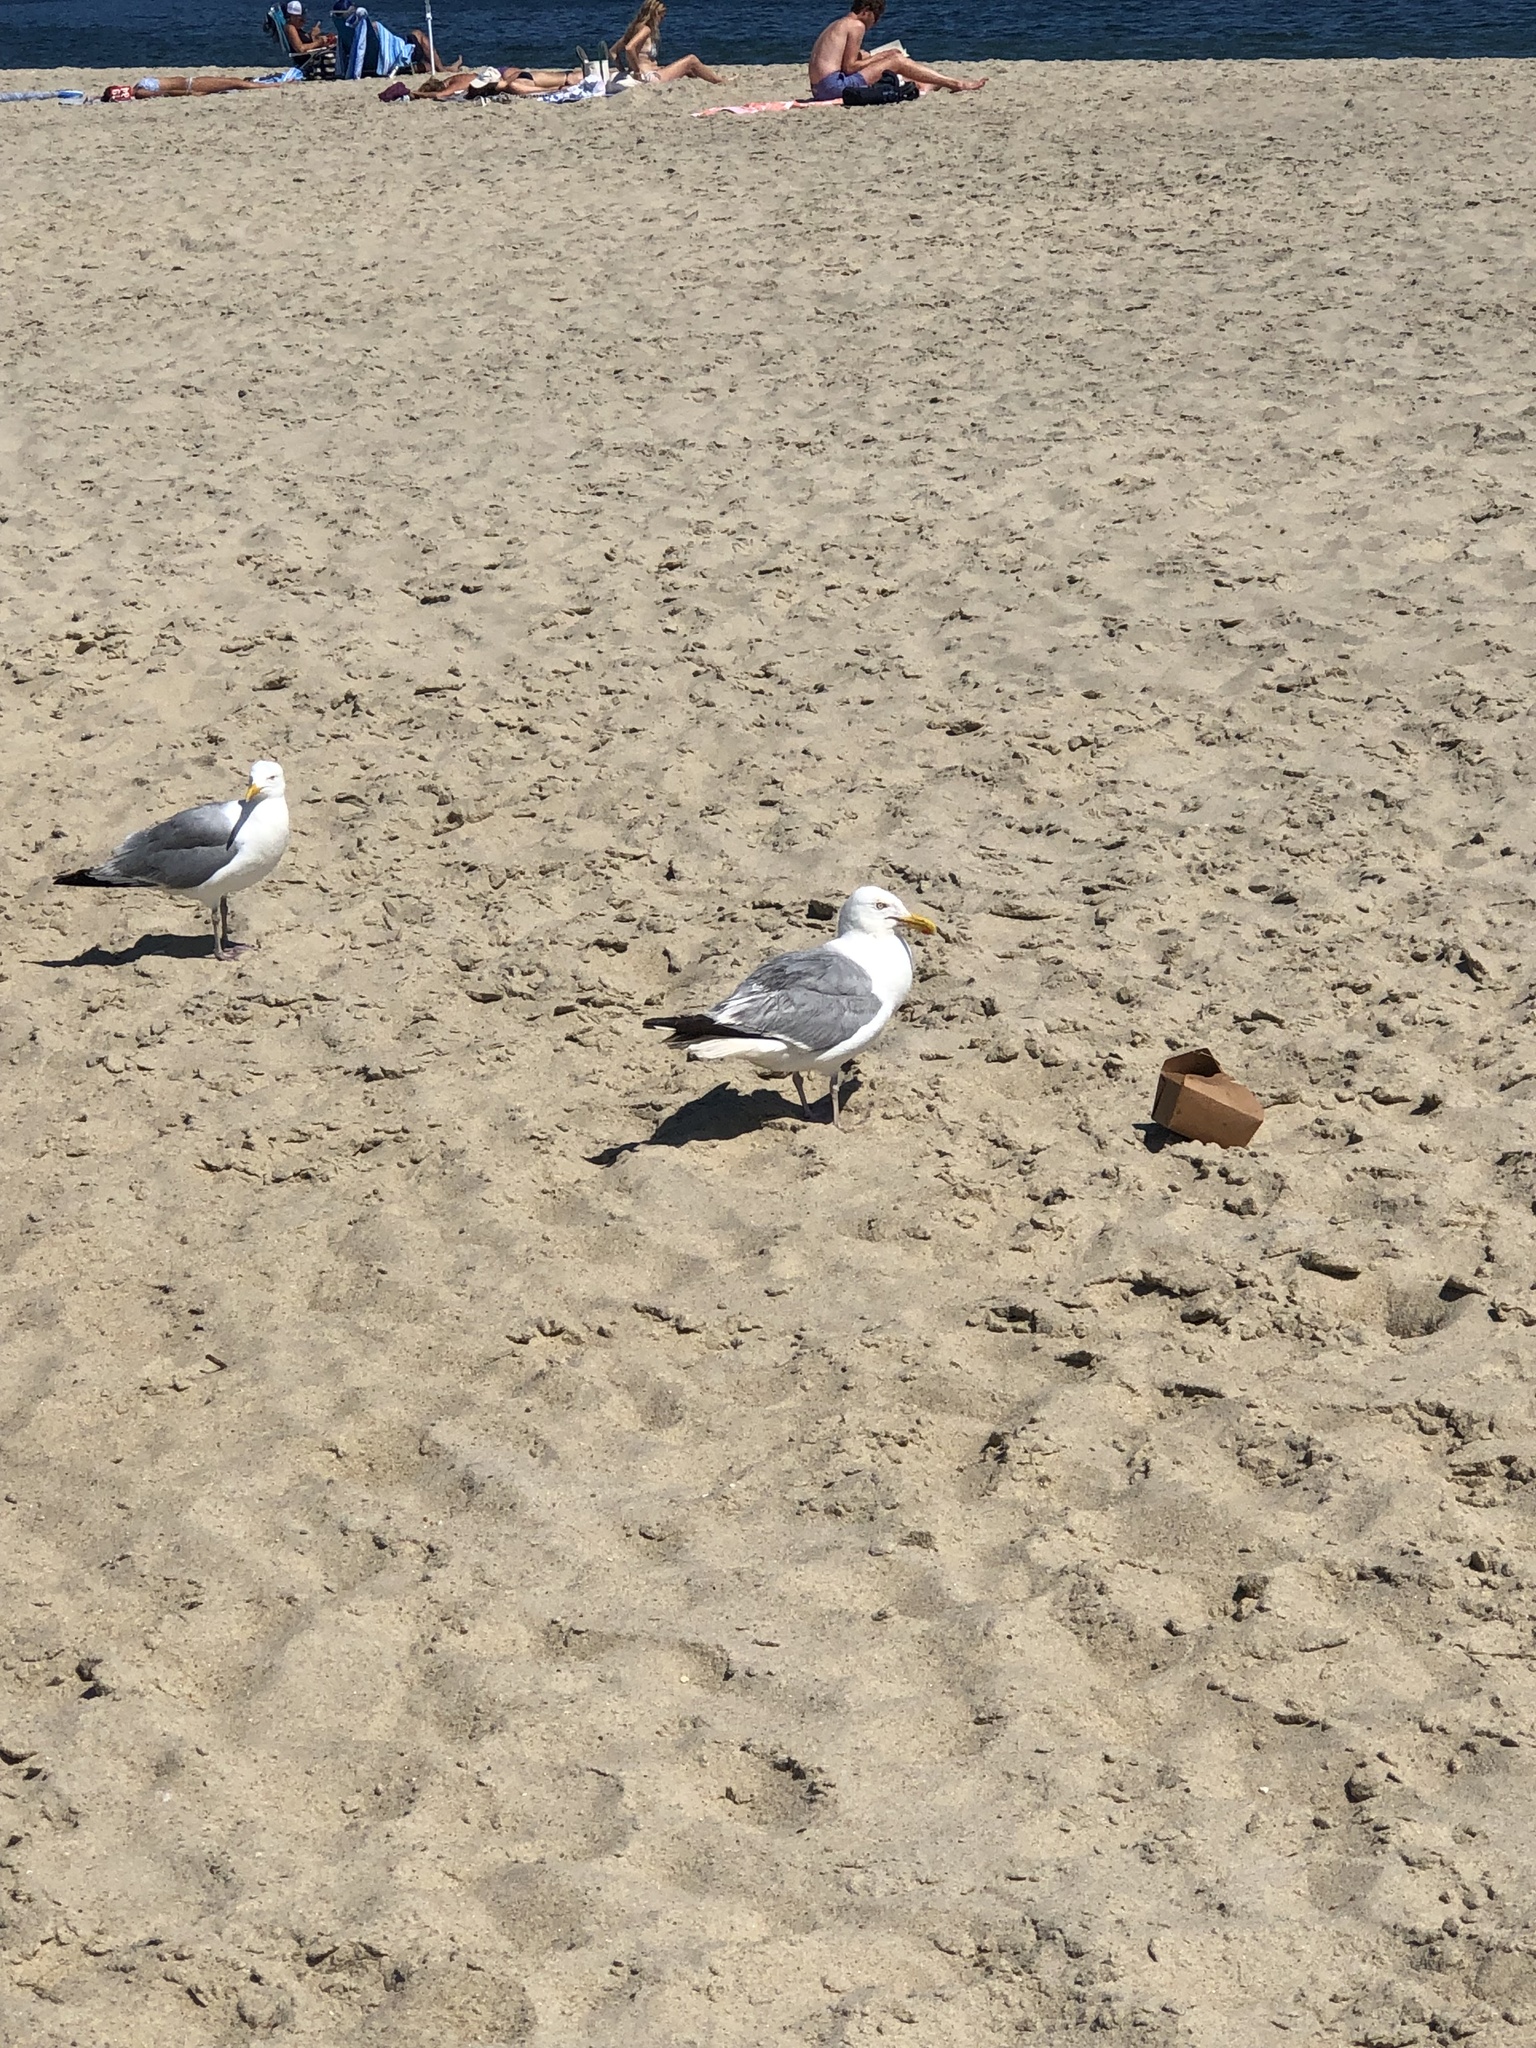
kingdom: Animalia
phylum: Chordata
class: Aves
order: Charadriiformes
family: Laridae
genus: Larus
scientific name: Larus argentatus
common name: Herring gull
